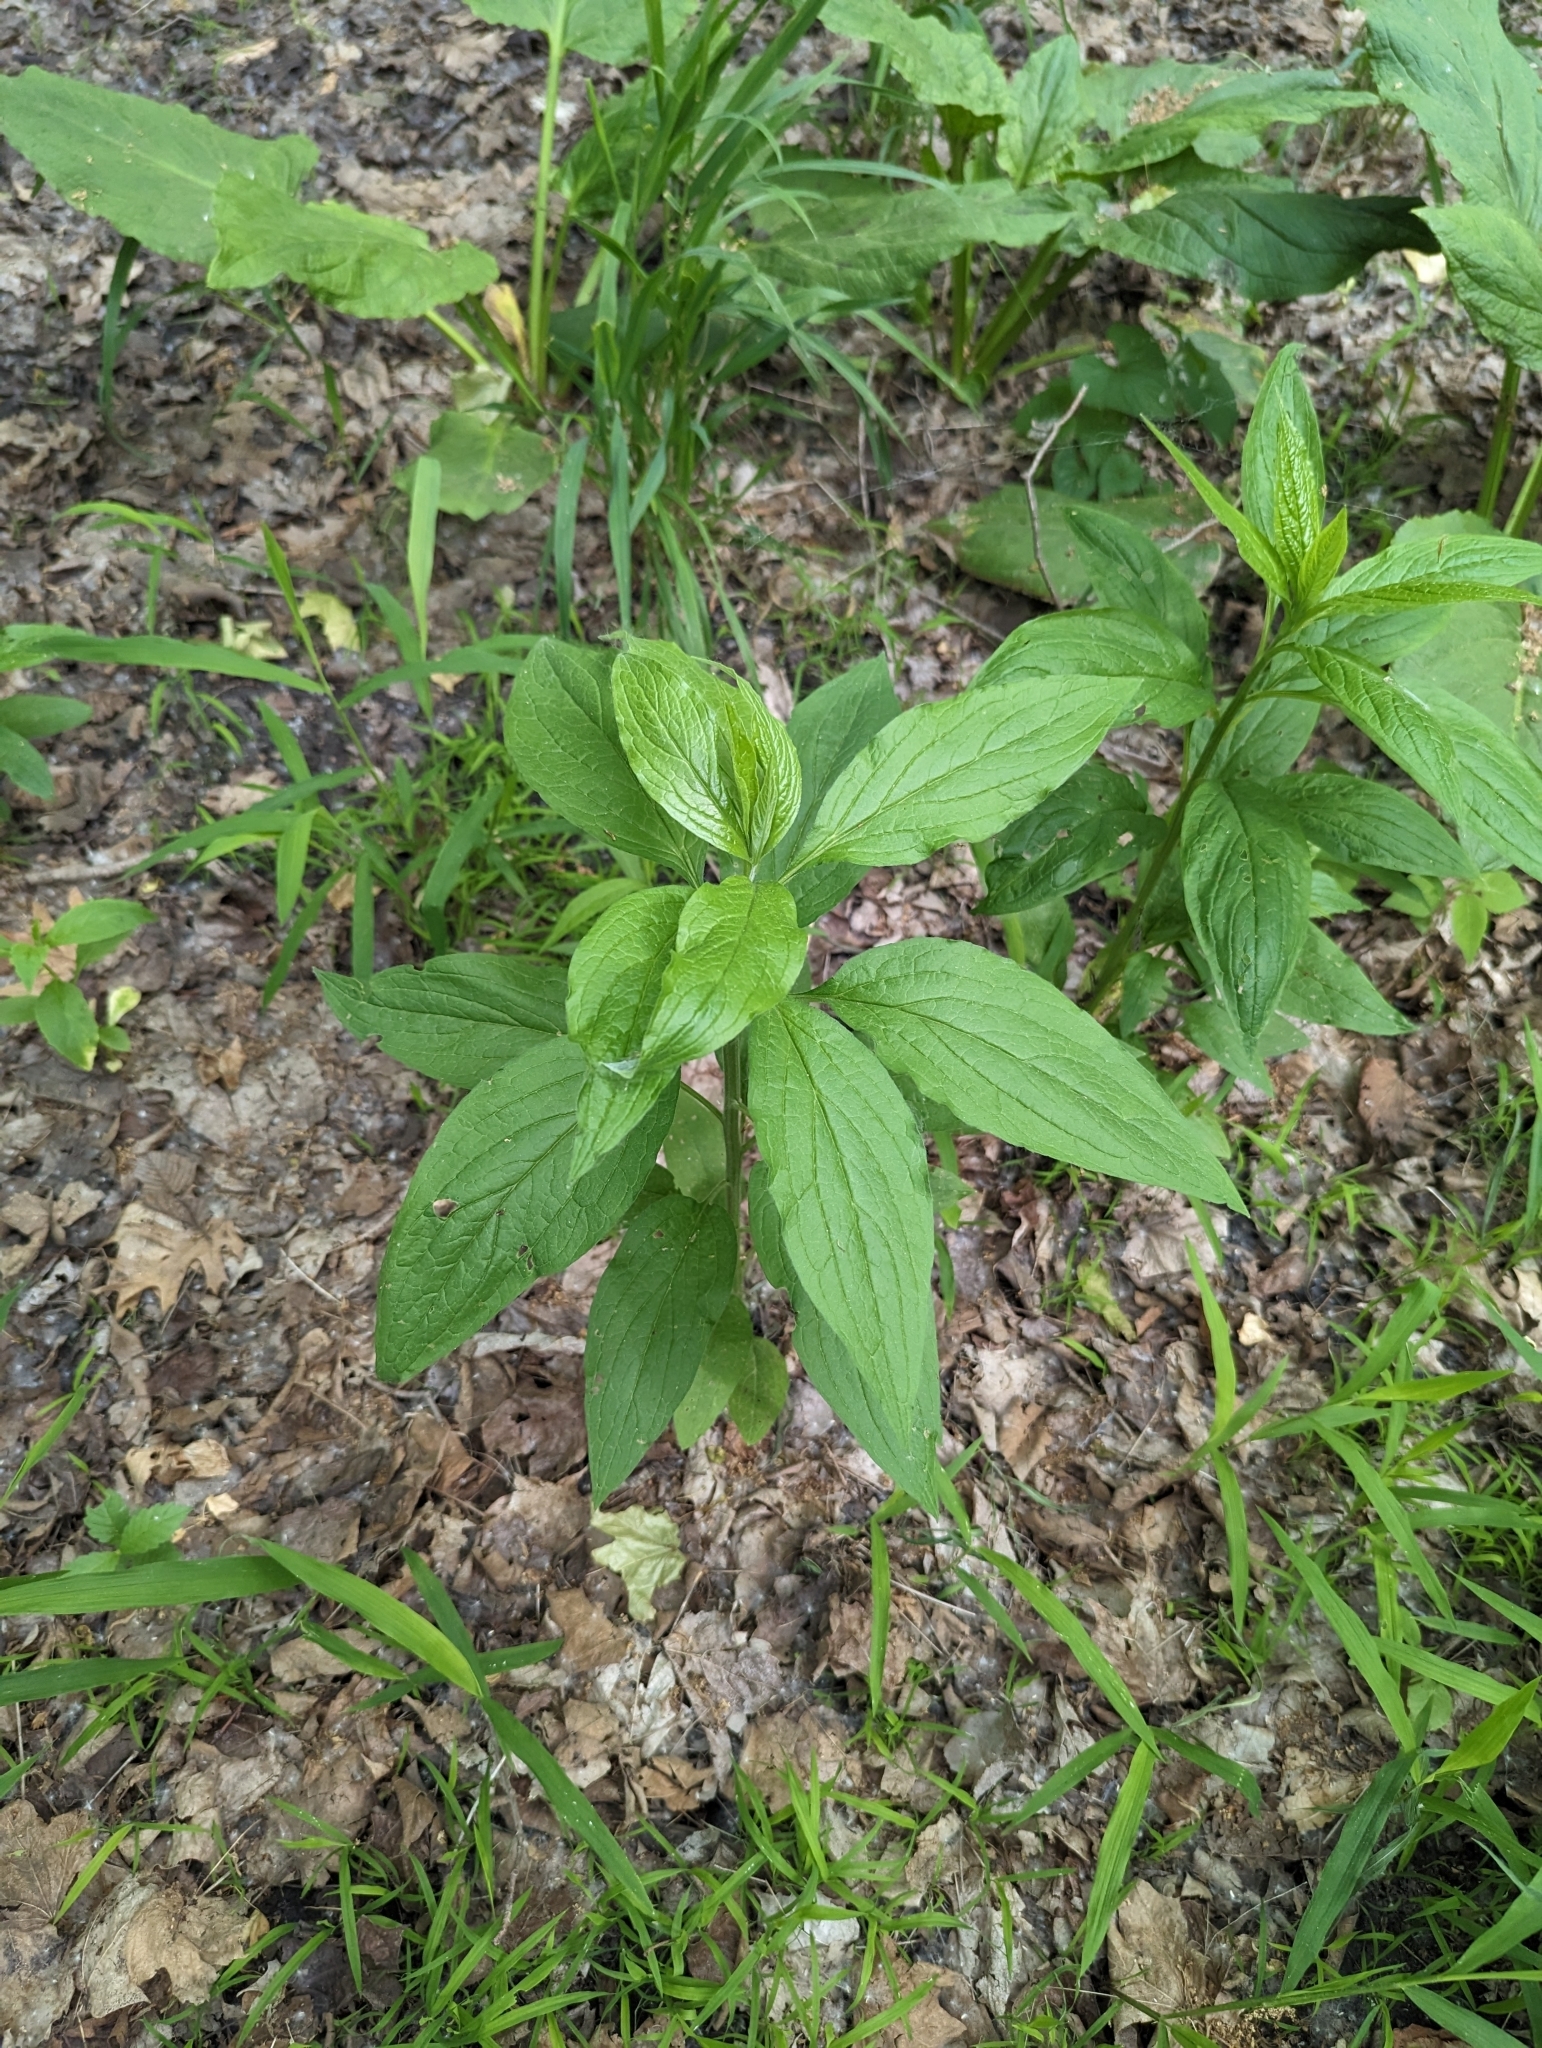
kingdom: Plantae
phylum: Tracheophyta
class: Magnoliopsida
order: Boraginales
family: Boraginaceae
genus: Hackelia
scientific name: Hackelia virginiana
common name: Beggar's-lice
